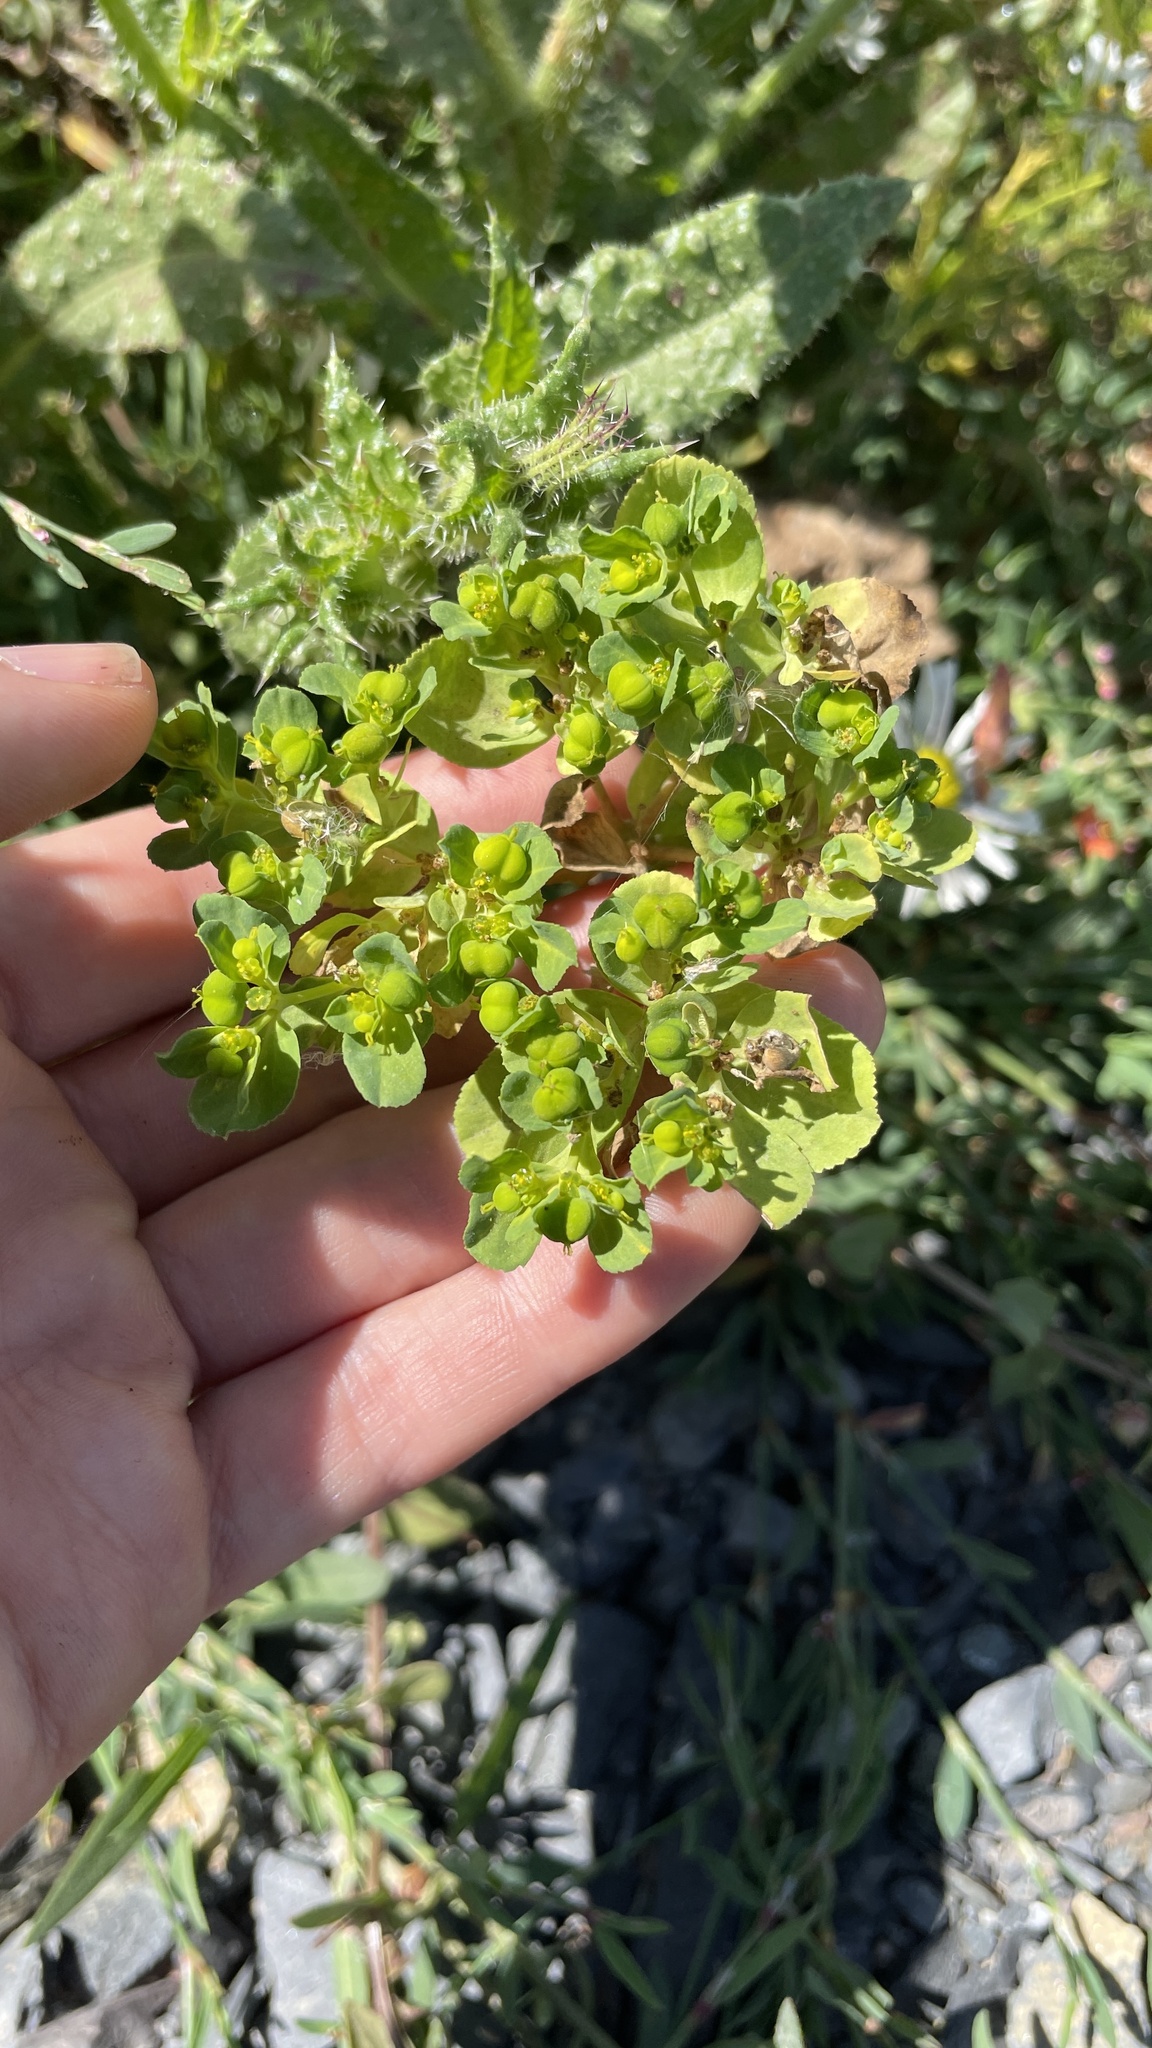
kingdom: Plantae
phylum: Tracheophyta
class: Magnoliopsida
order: Malpighiales
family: Euphorbiaceae
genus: Euphorbia
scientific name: Euphorbia helioscopia
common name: Sun spurge
